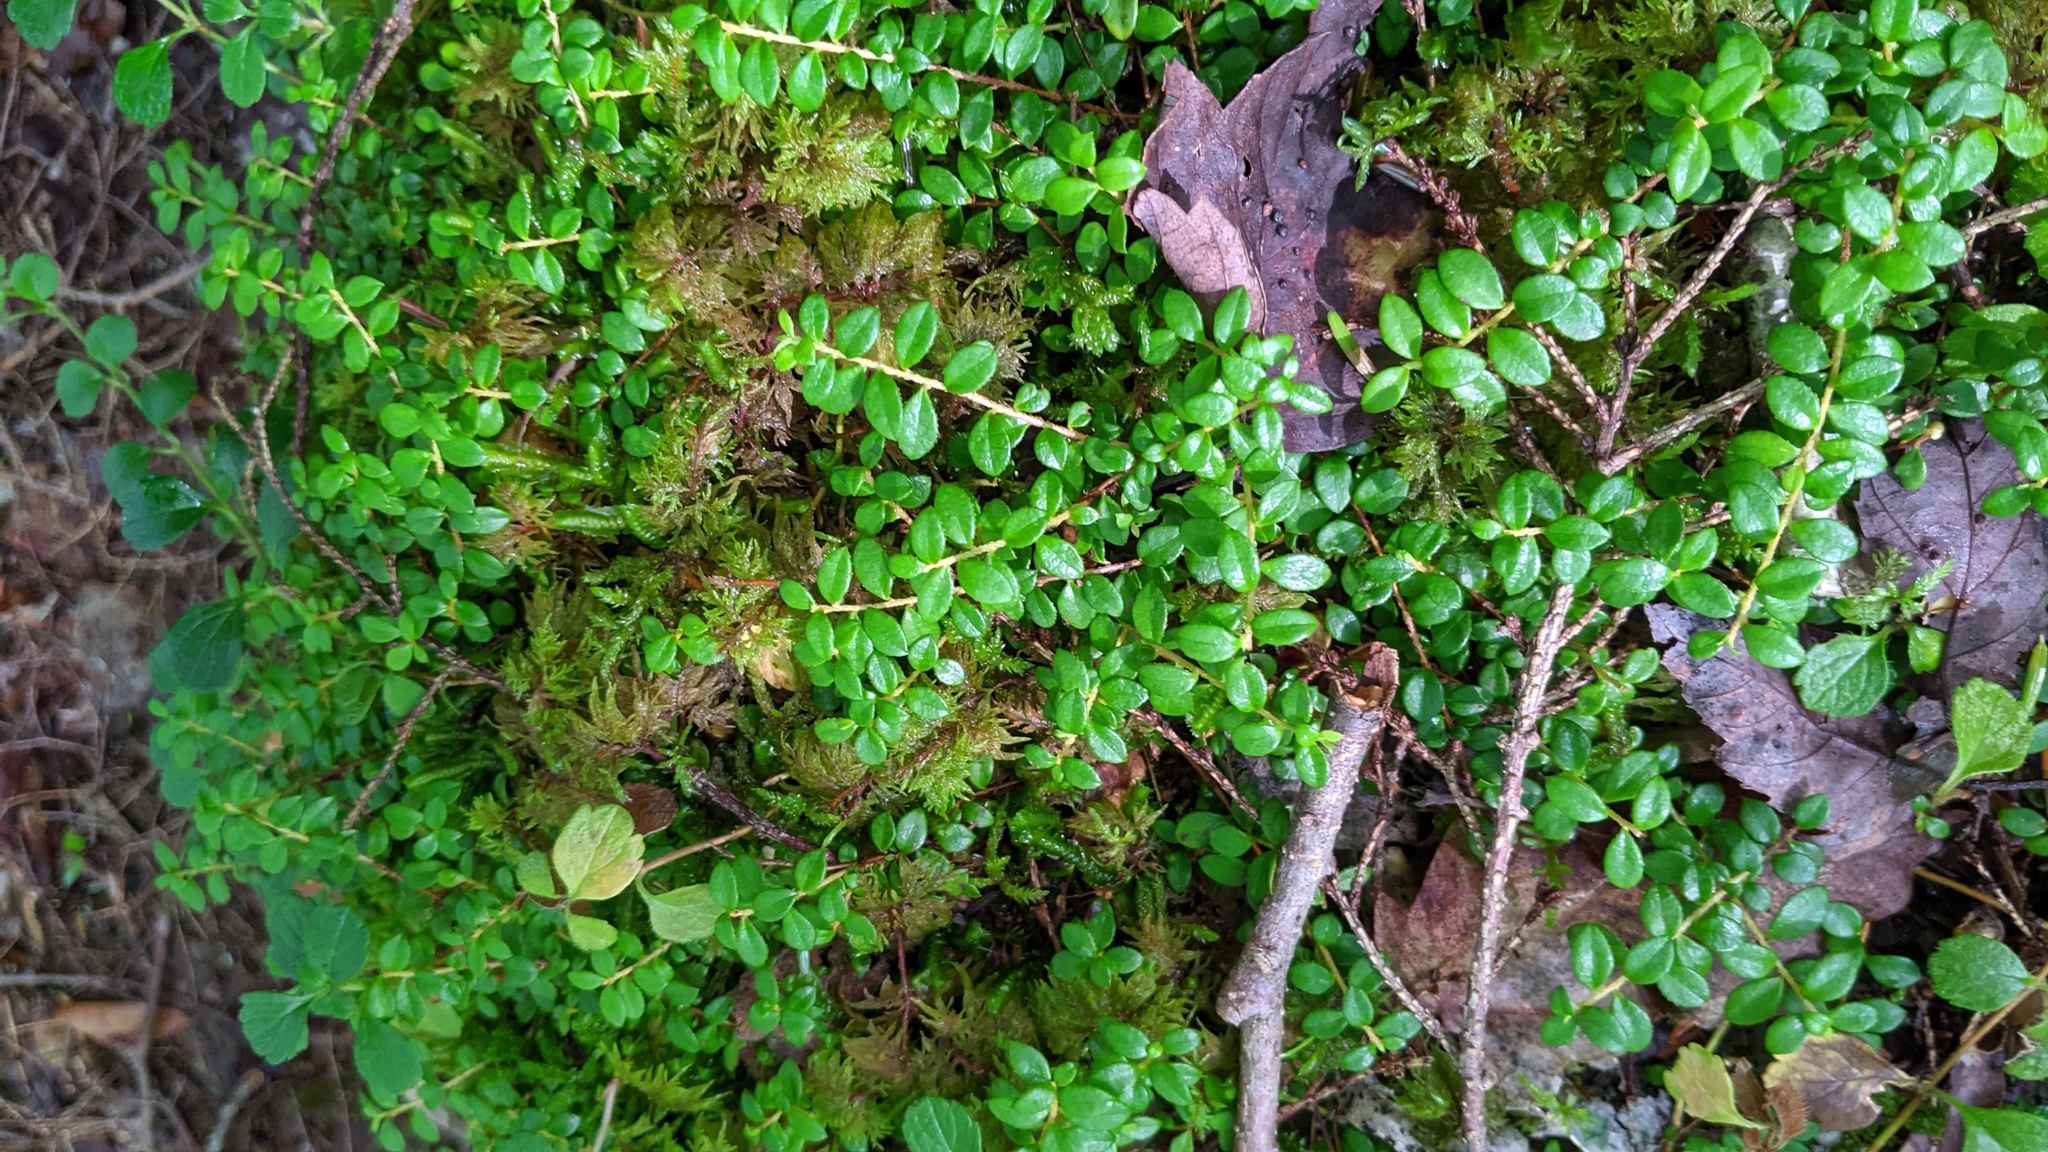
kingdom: Plantae
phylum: Tracheophyta
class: Magnoliopsida
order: Ericales
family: Ericaceae
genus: Gaultheria
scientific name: Gaultheria hispidula
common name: Cancer wintergreen
